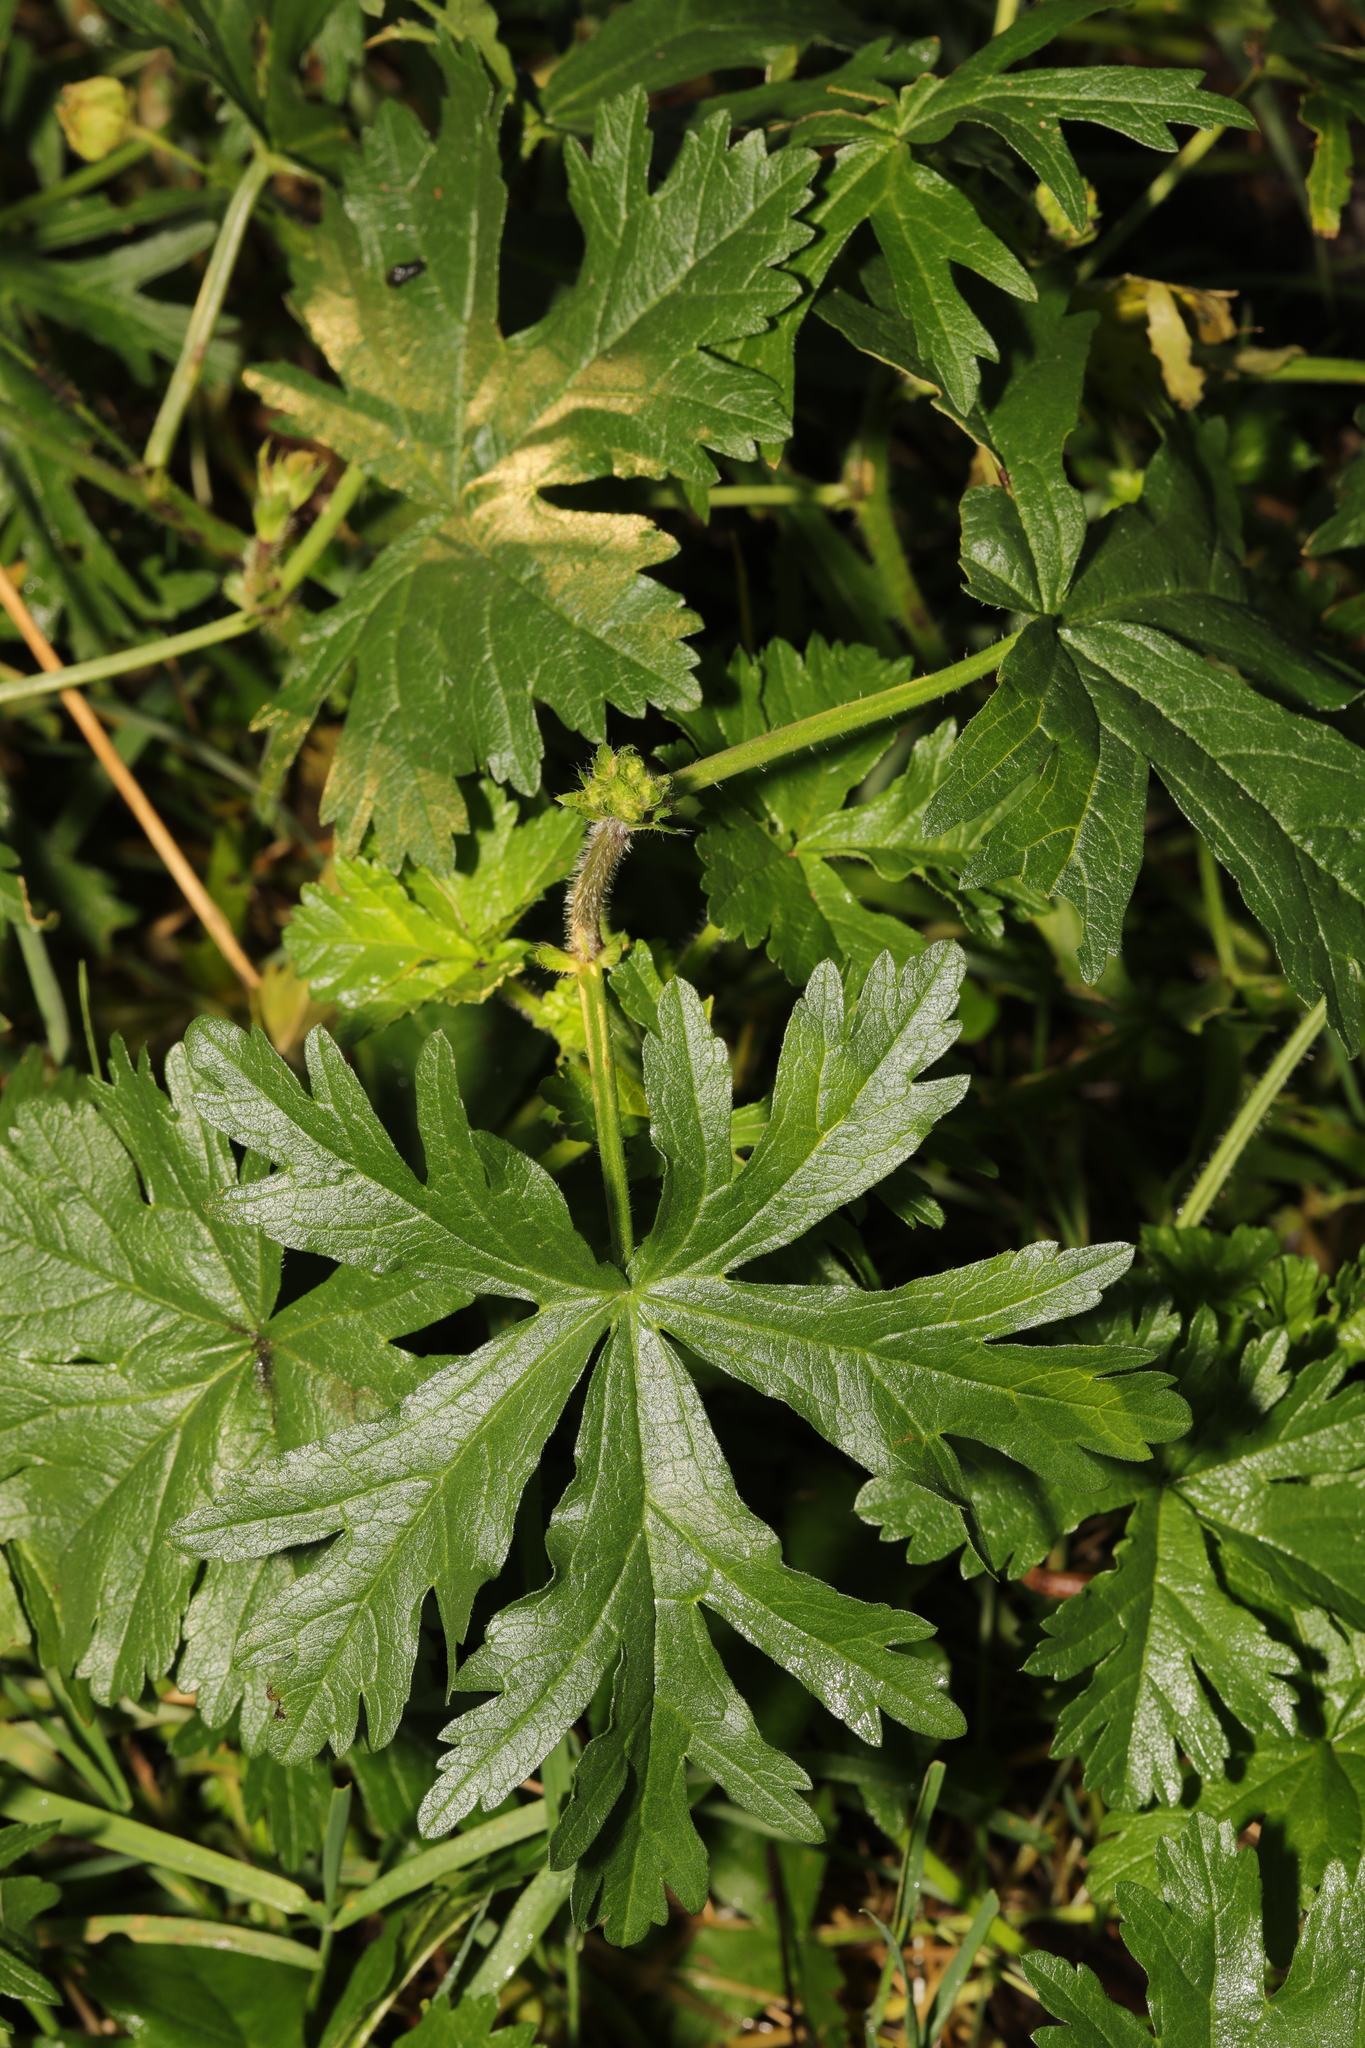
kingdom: Plantae
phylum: Tracheophyta
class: Magnoliopsida
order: Malvales
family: Malvaceae
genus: Malva
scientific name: Malva moschata
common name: Musk mallow
